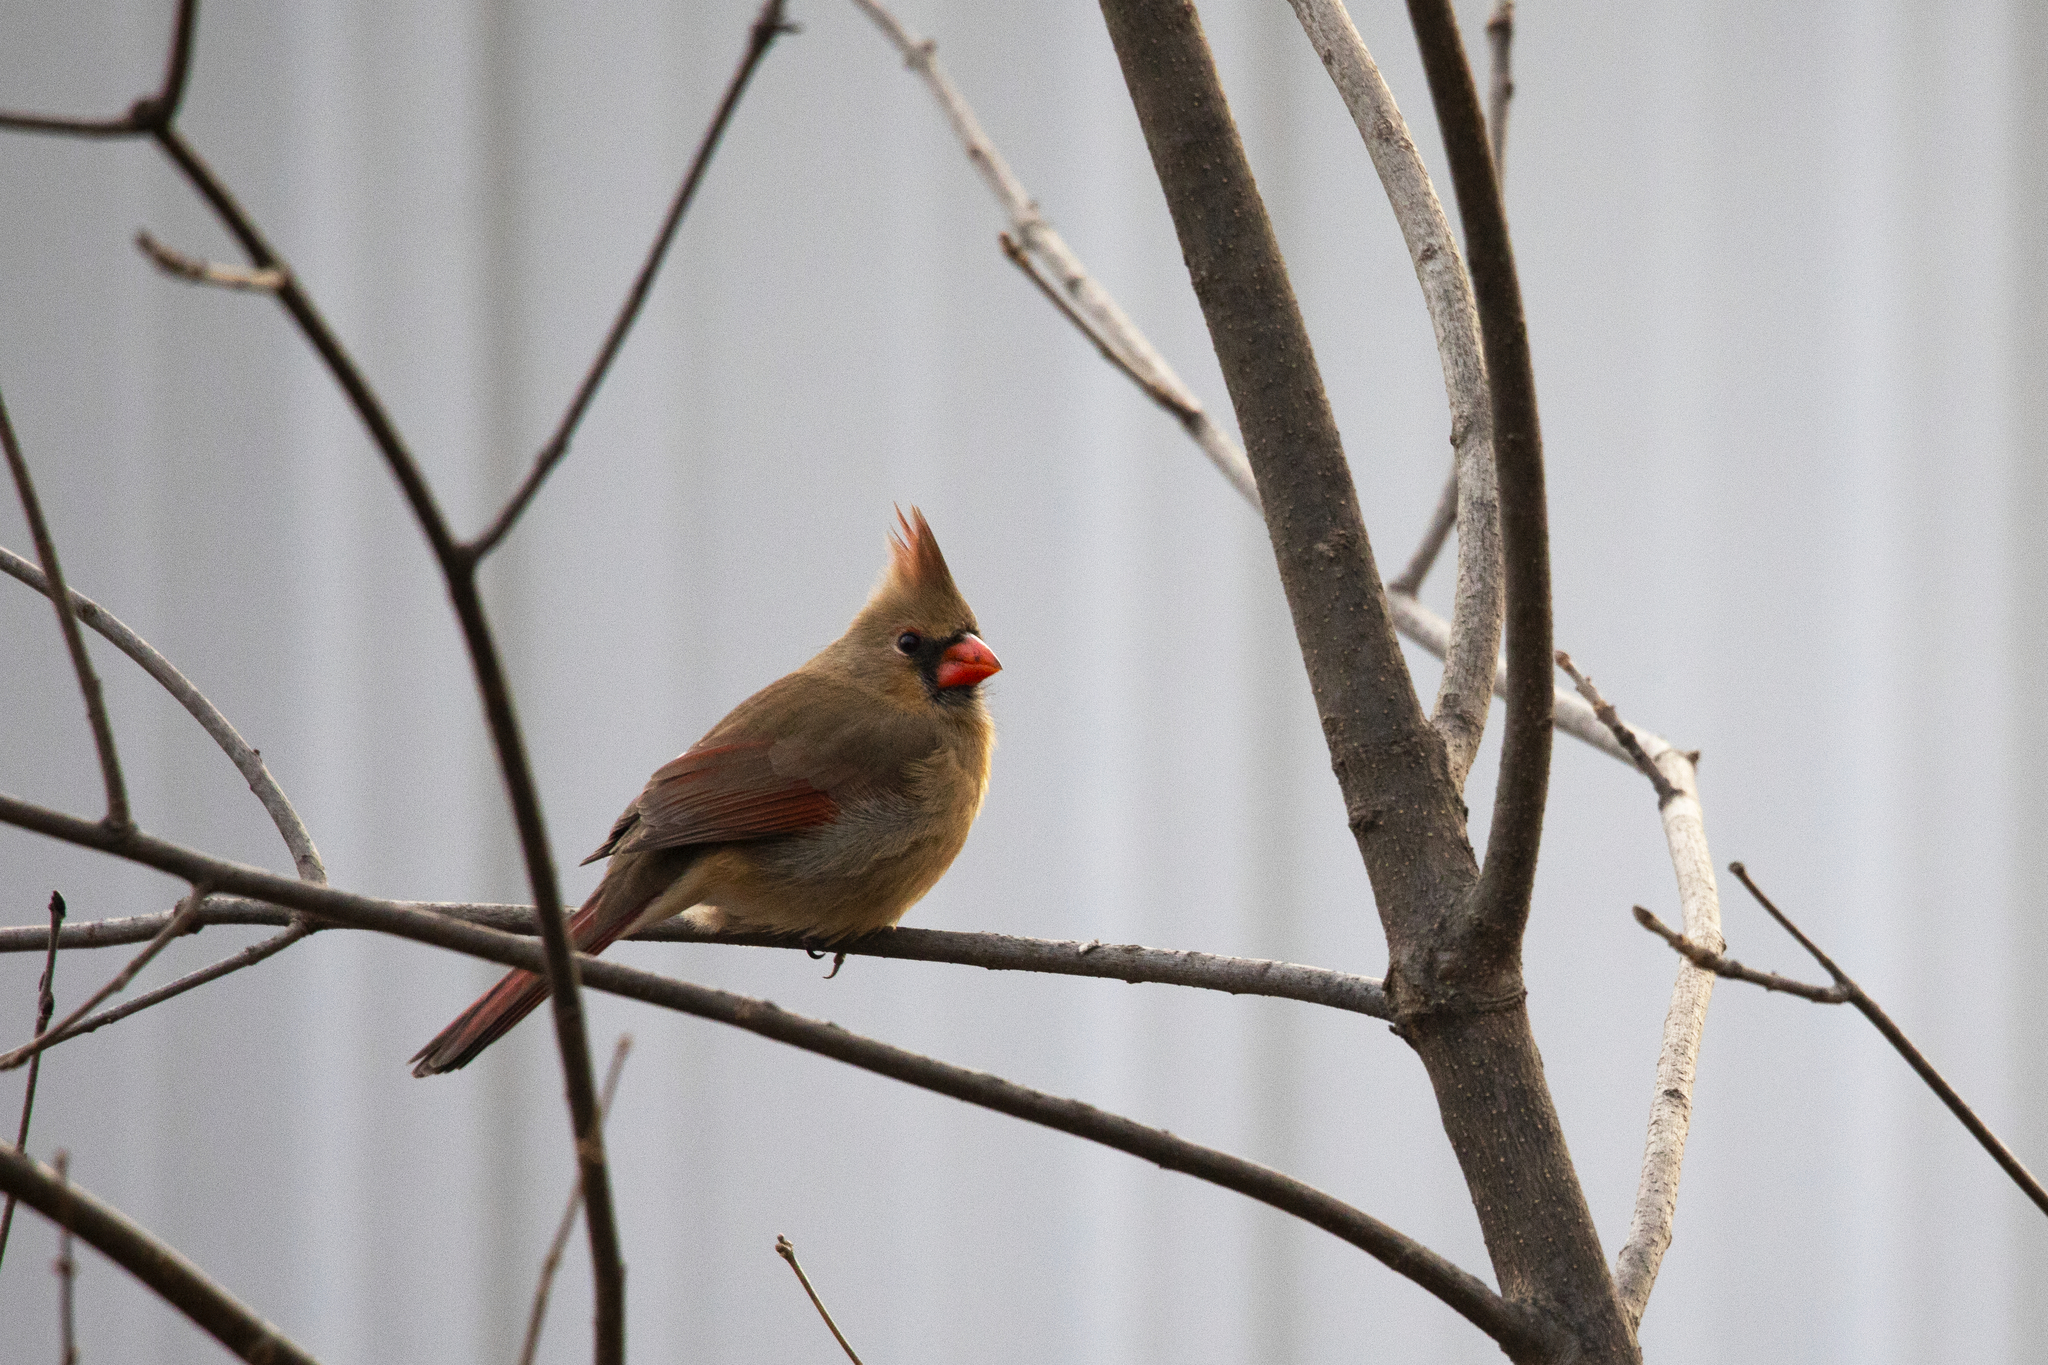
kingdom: Animalia
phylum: Chordata
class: Aves
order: Passeriformes
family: Cardinalidae
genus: Cardinalis
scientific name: Cardinalis cardinalis
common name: Northern cardinal
